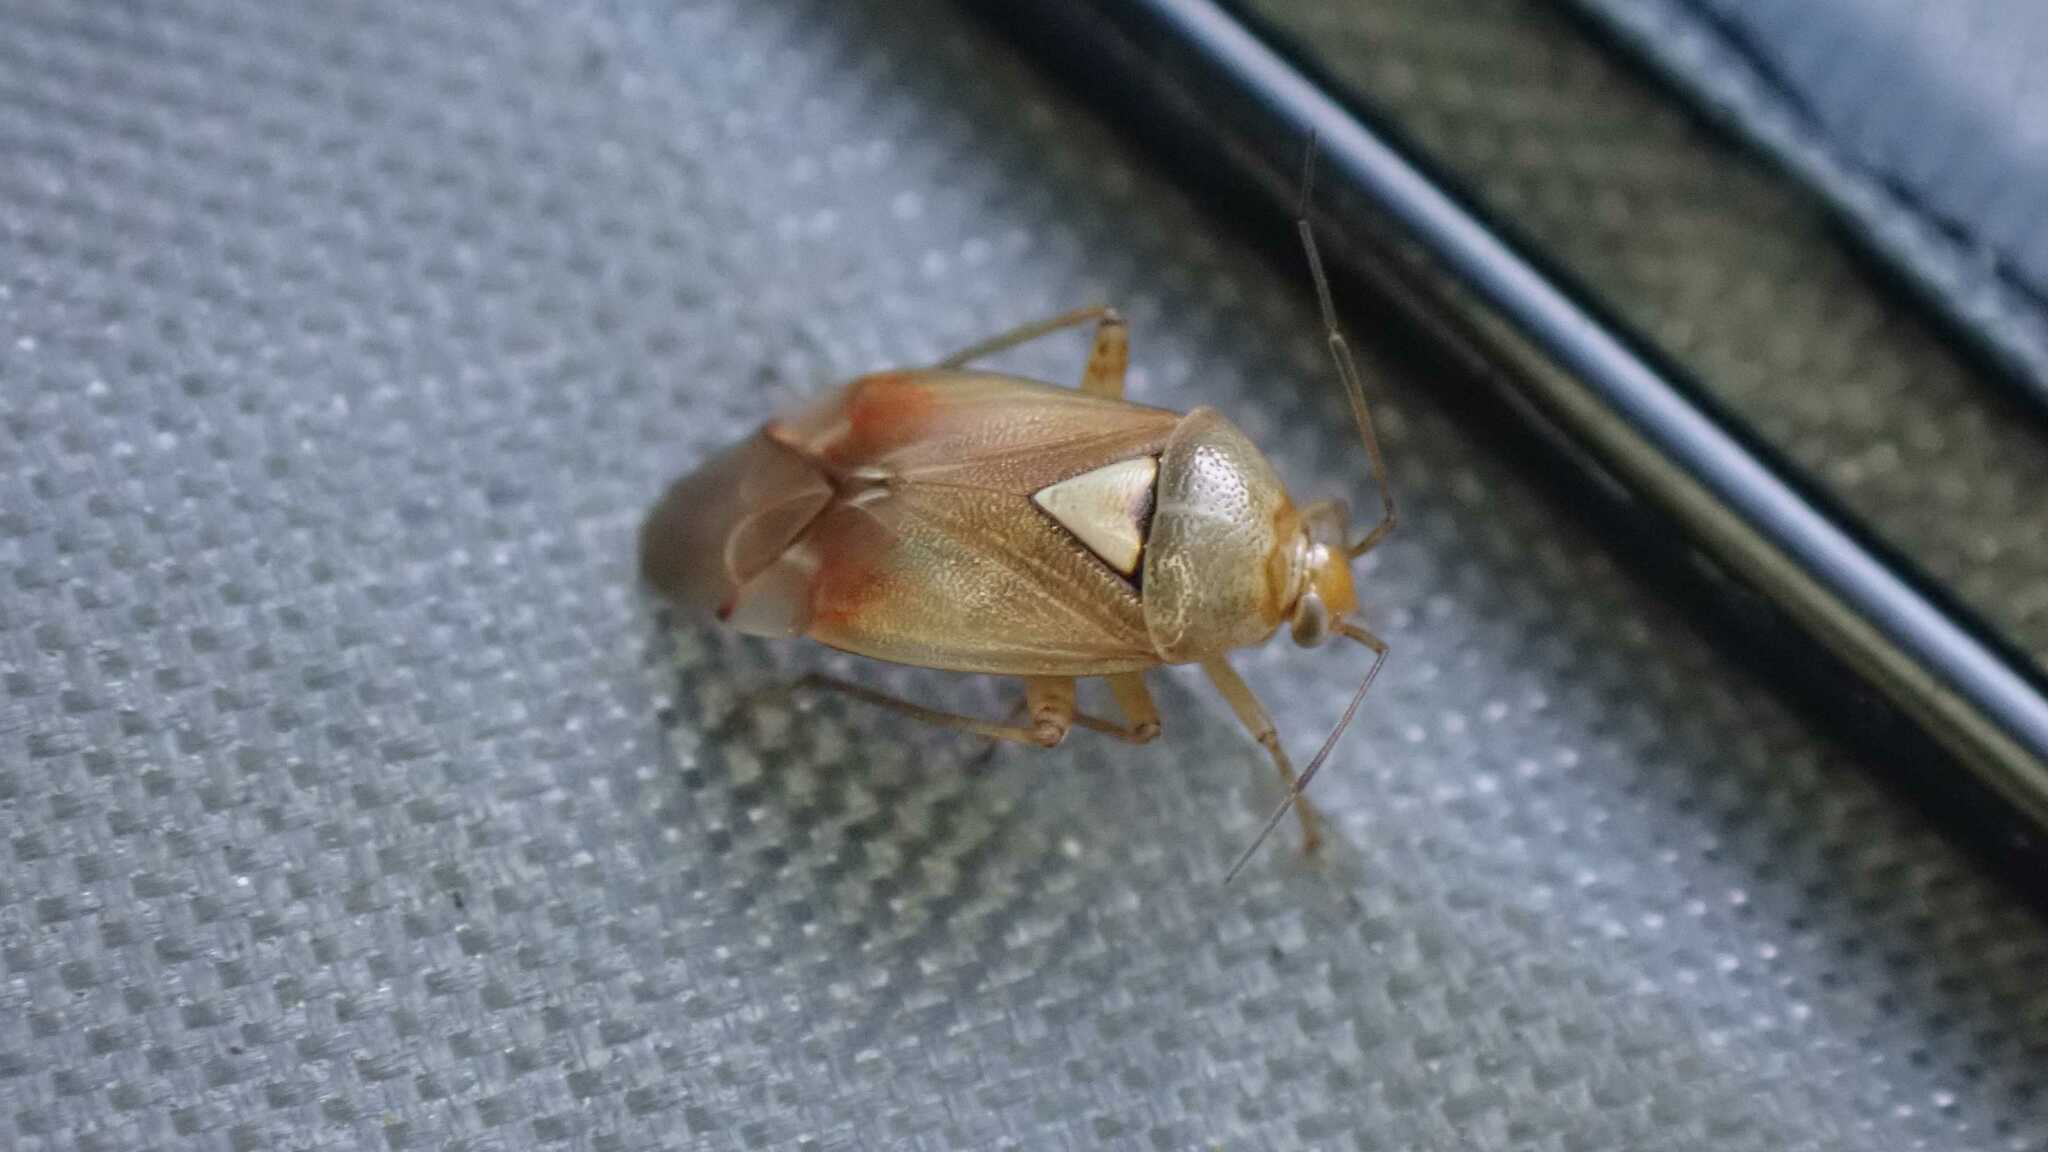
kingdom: Animalia
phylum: Arthropoda
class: Insecta
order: Hemiptera
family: Miridae
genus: Lygus
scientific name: Lygus pratensis
